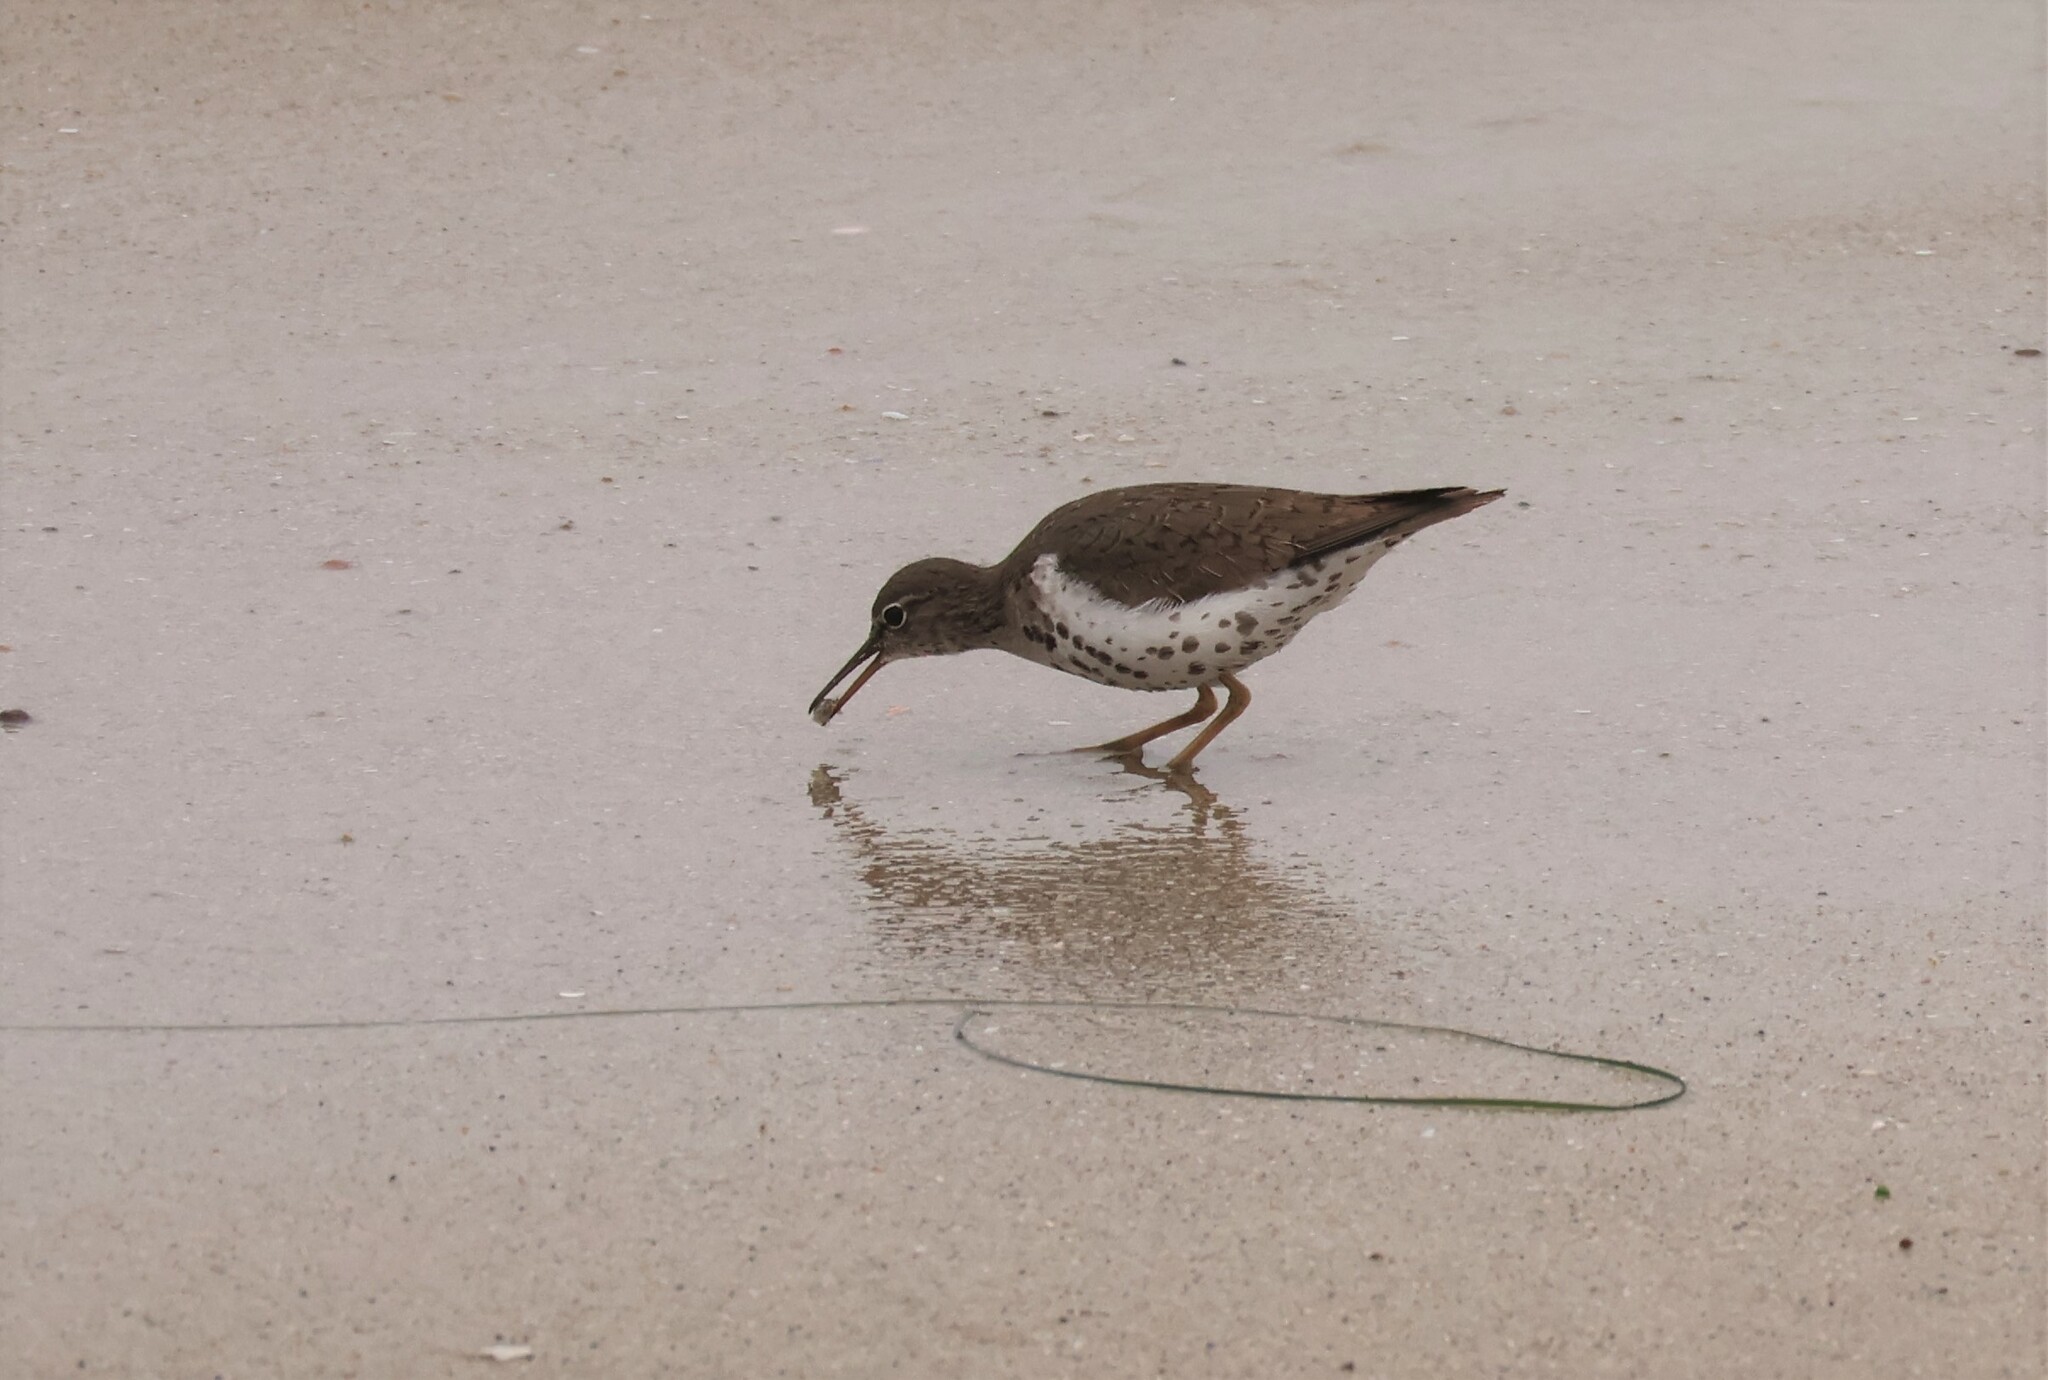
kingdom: Animalia
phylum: Chordata
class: Aves
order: Charadriiformes
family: Scolopacidae
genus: Actitis
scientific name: Actitis macularius
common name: Spotted sandpiper
